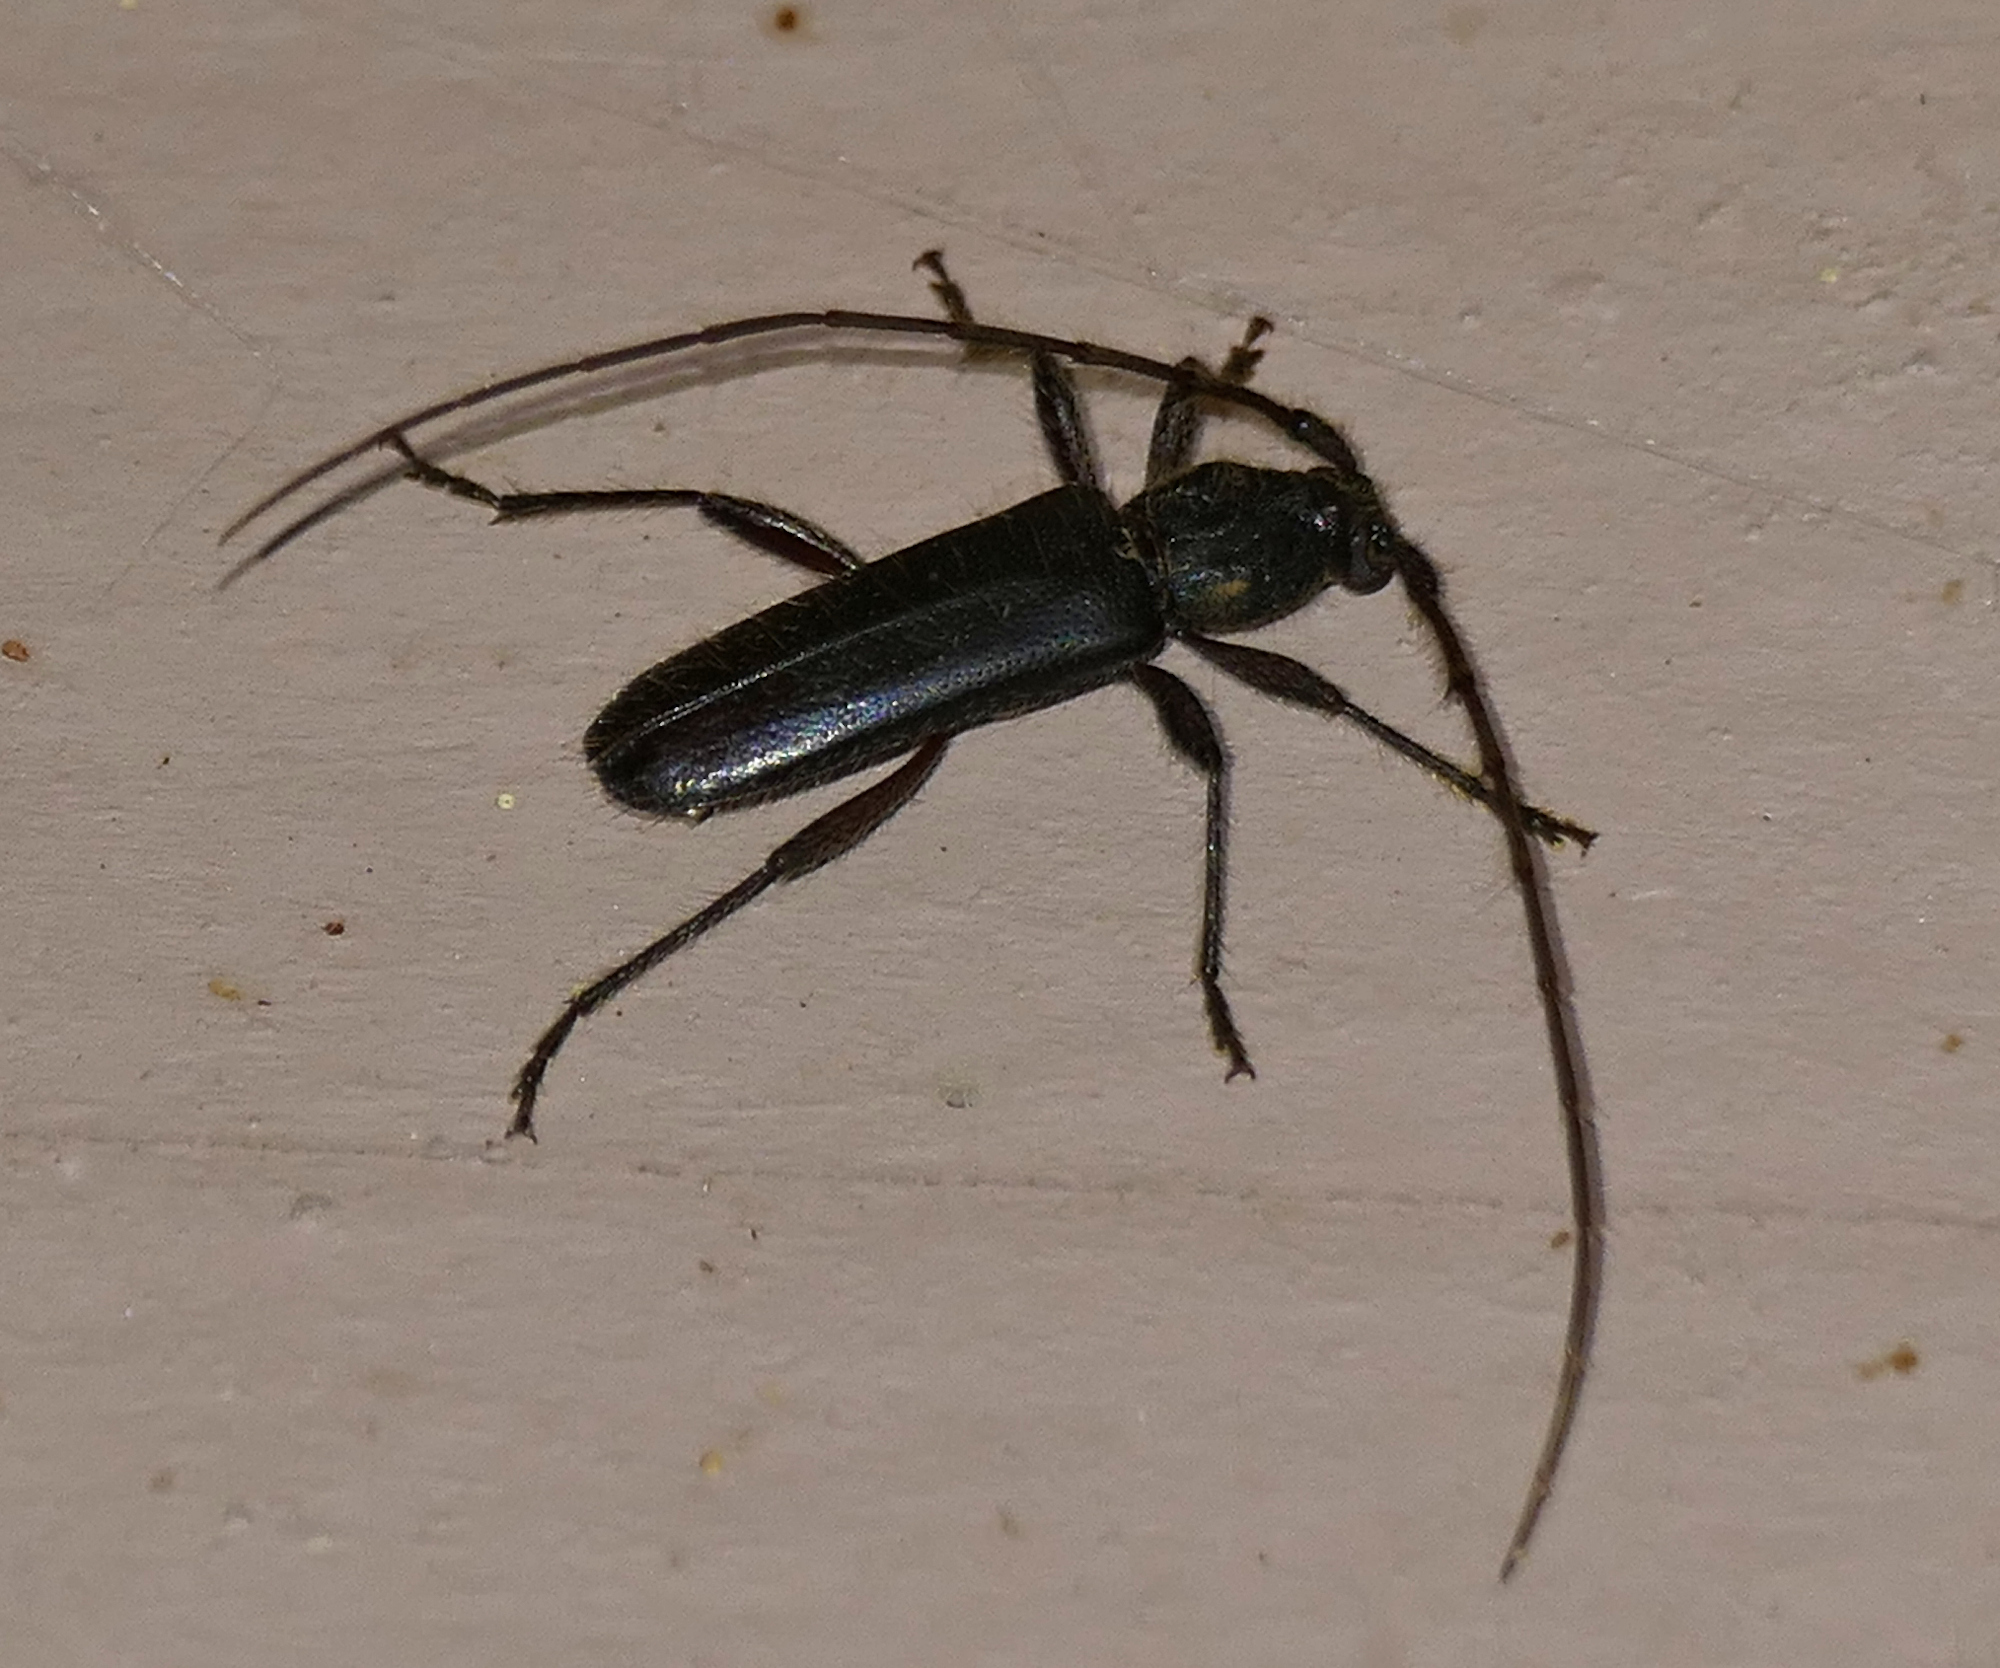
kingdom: Animalia
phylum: Arthropoda
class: Insecta
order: Coleoptera
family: Cerambycidae
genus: Stenelaphus
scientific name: Stenelaphus alienus
